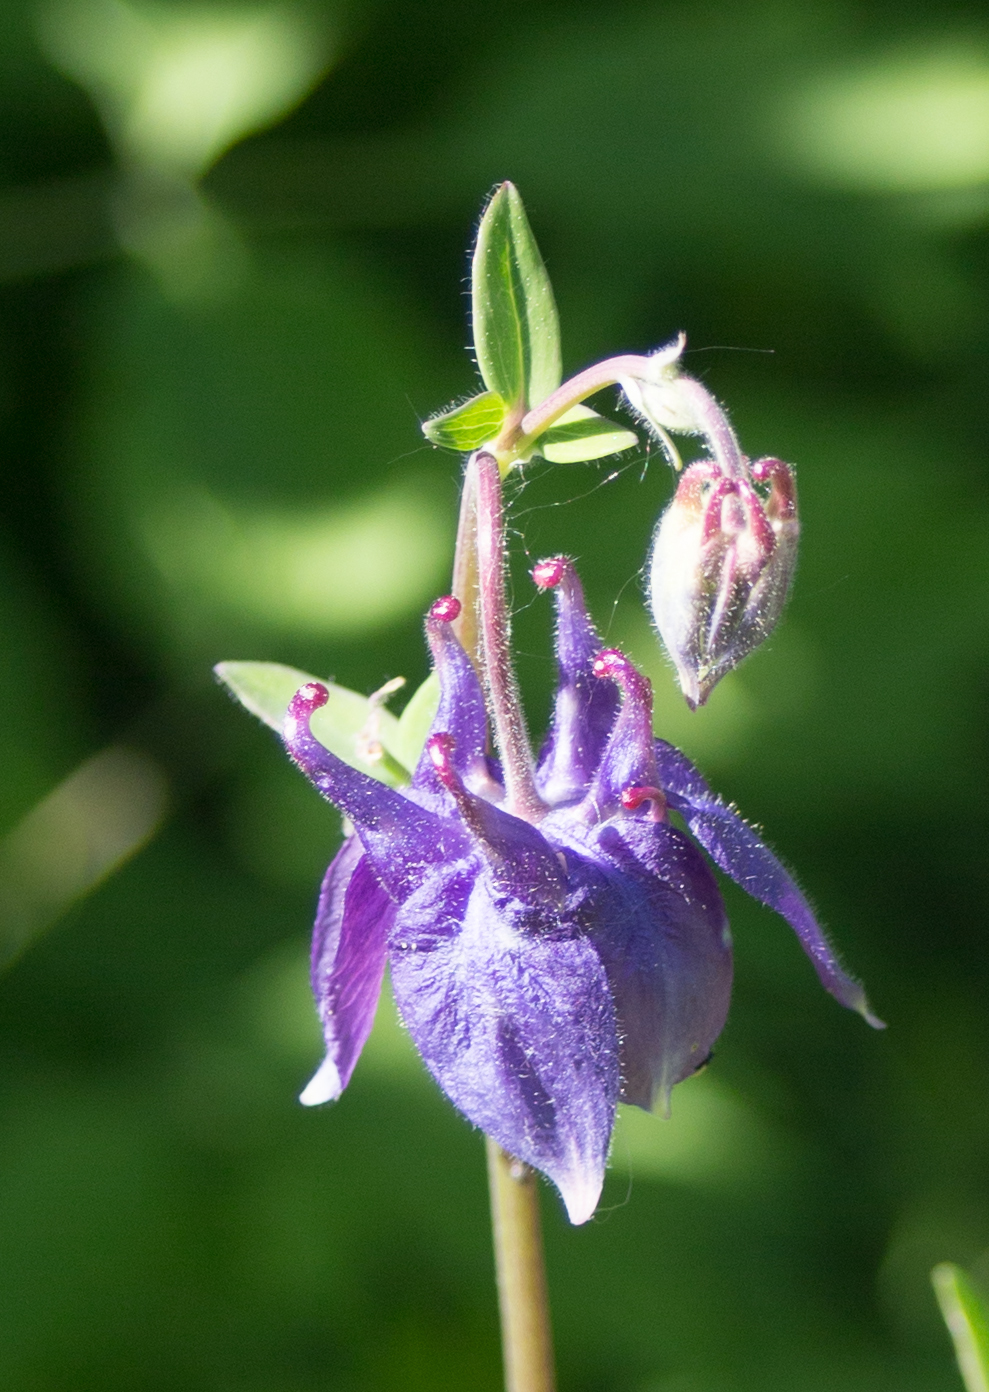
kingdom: Plantae
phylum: Tracheophyta
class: Magnoliopsida
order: Ranunculales
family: Ranunculaceae
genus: Aquilegia
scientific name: Aquilegia vulgaris
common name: Columbine
